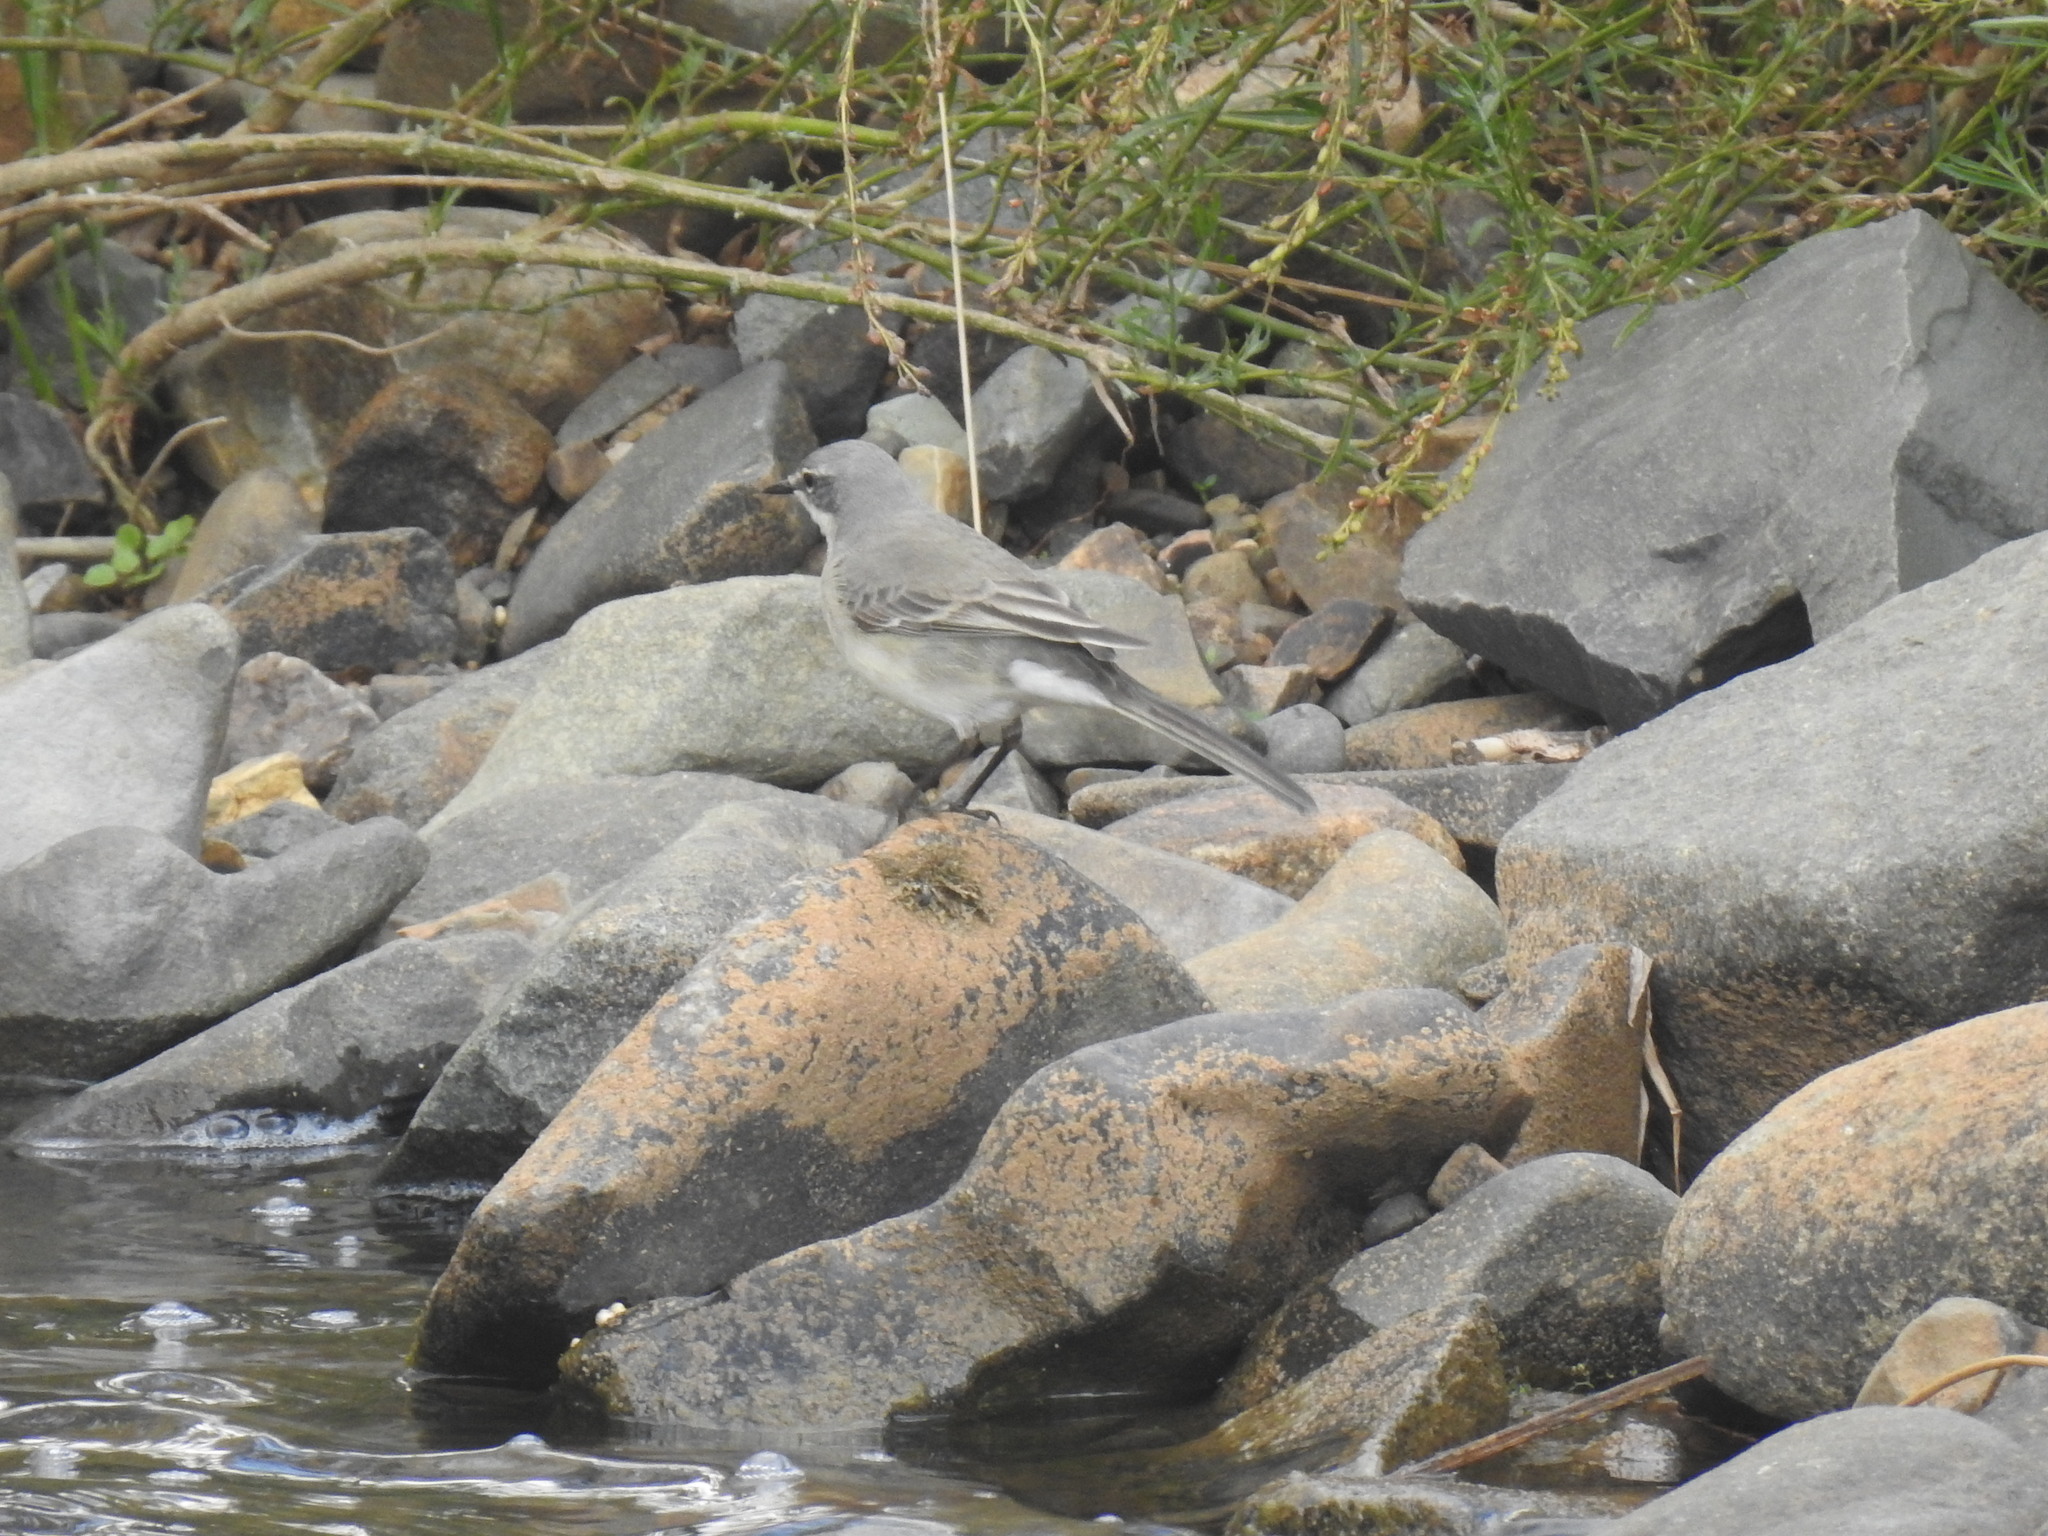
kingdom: Animalia
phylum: Chordata
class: Aves
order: Passeriformes
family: Motacillidae
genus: Motacilla
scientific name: Motacilla capensis
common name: Cape wagtail
